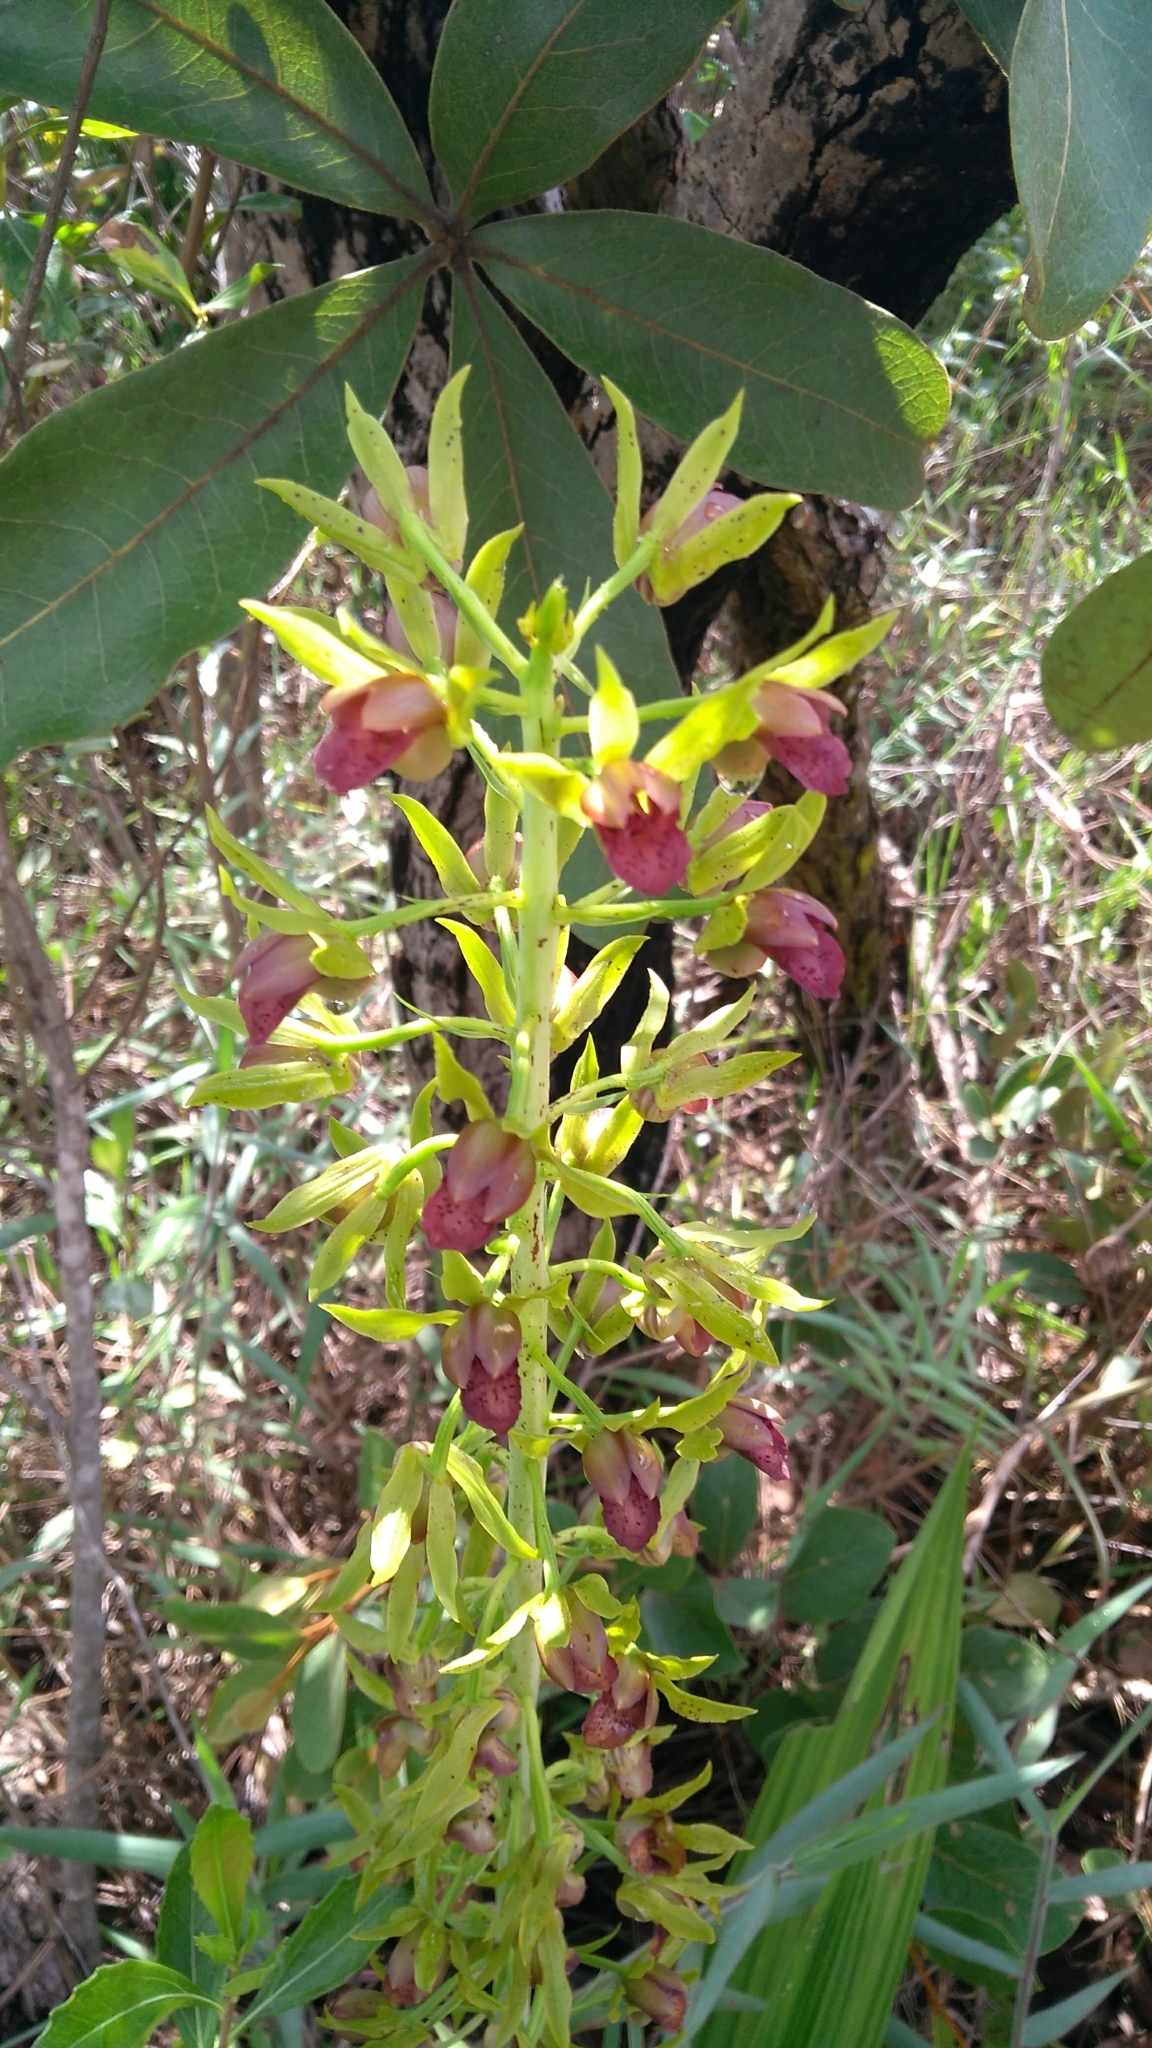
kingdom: Plantae
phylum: Tracheophyta
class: Liliopsida
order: Asparagales
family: Orchidaceae
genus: Eulophia
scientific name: Eulophia alta
